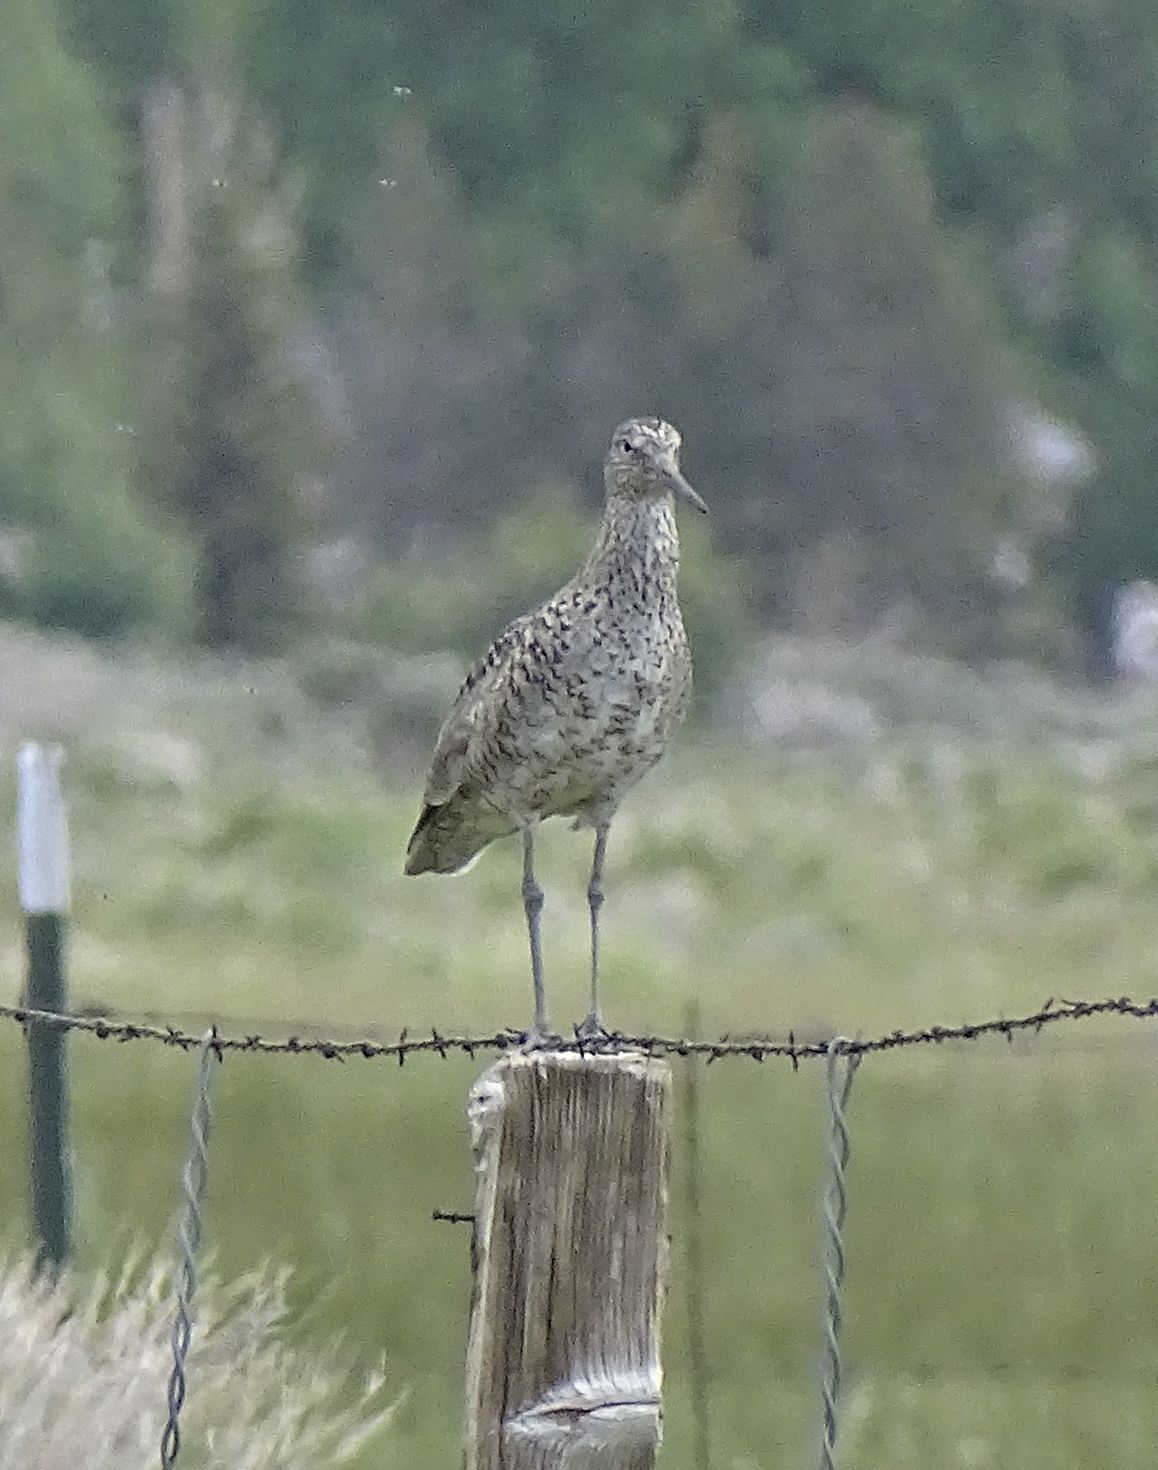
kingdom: Animalia
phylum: Chordata
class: Aves
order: Charadriiformes
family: Scolopacidae
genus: Tringa
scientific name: Tringa semipalmata
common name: Willet
